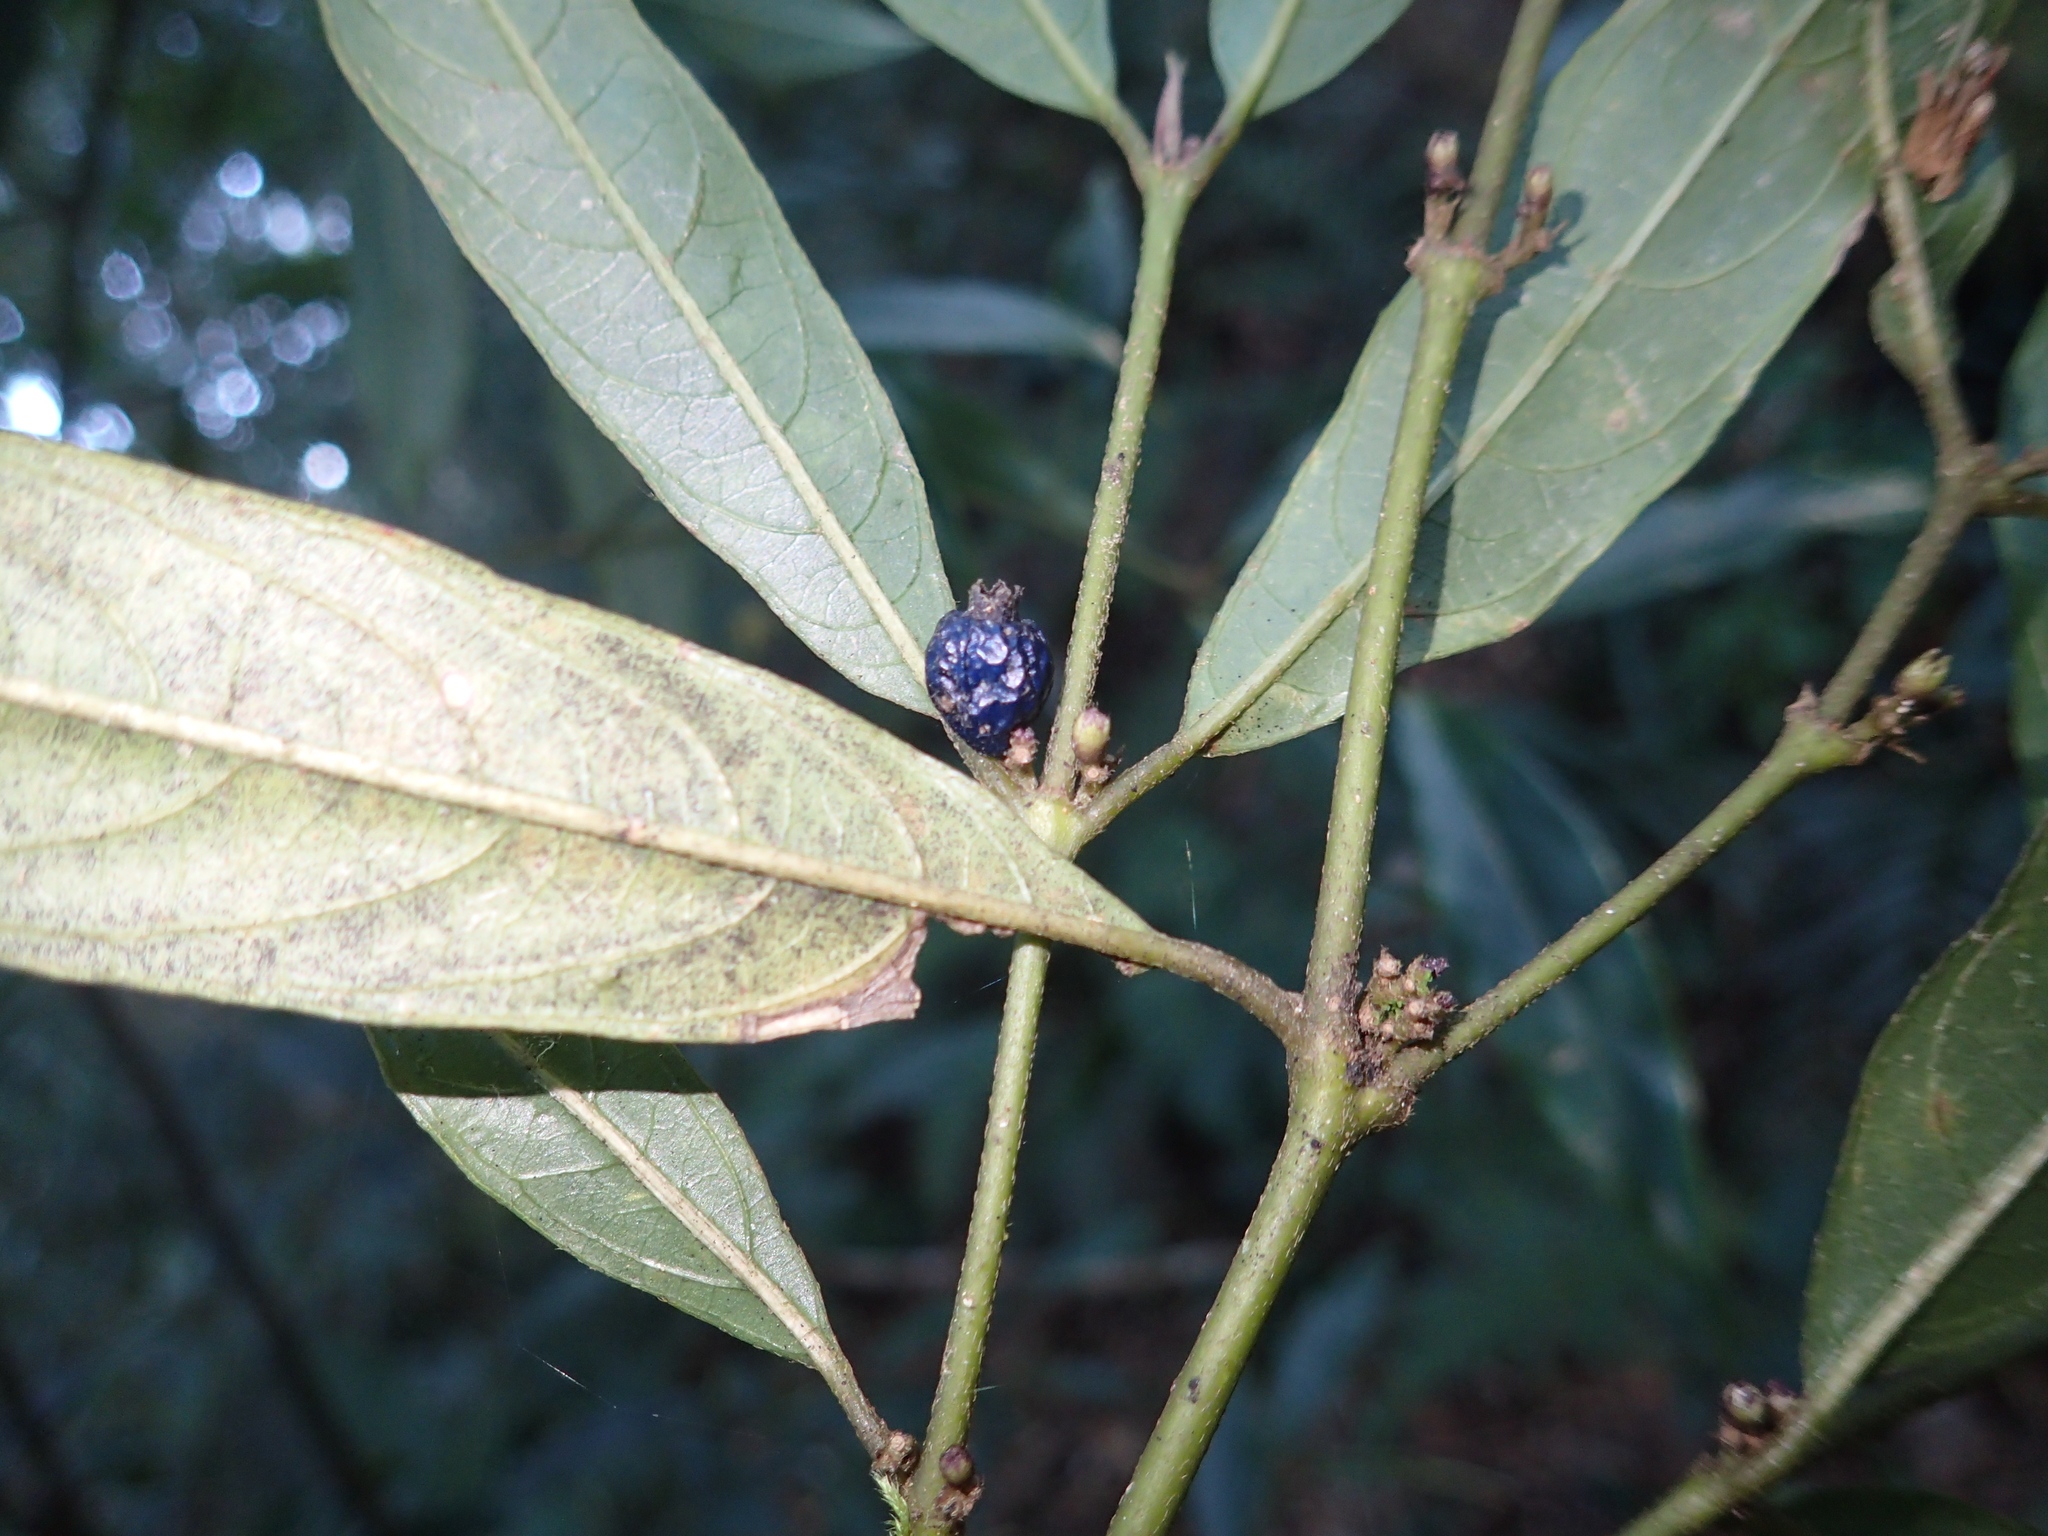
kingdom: Plantae
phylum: Tracheophyta
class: Magnoliopsida
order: Gentianales
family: Rubiaceae
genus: Lasianthus
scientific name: Lasianthus japonicus
